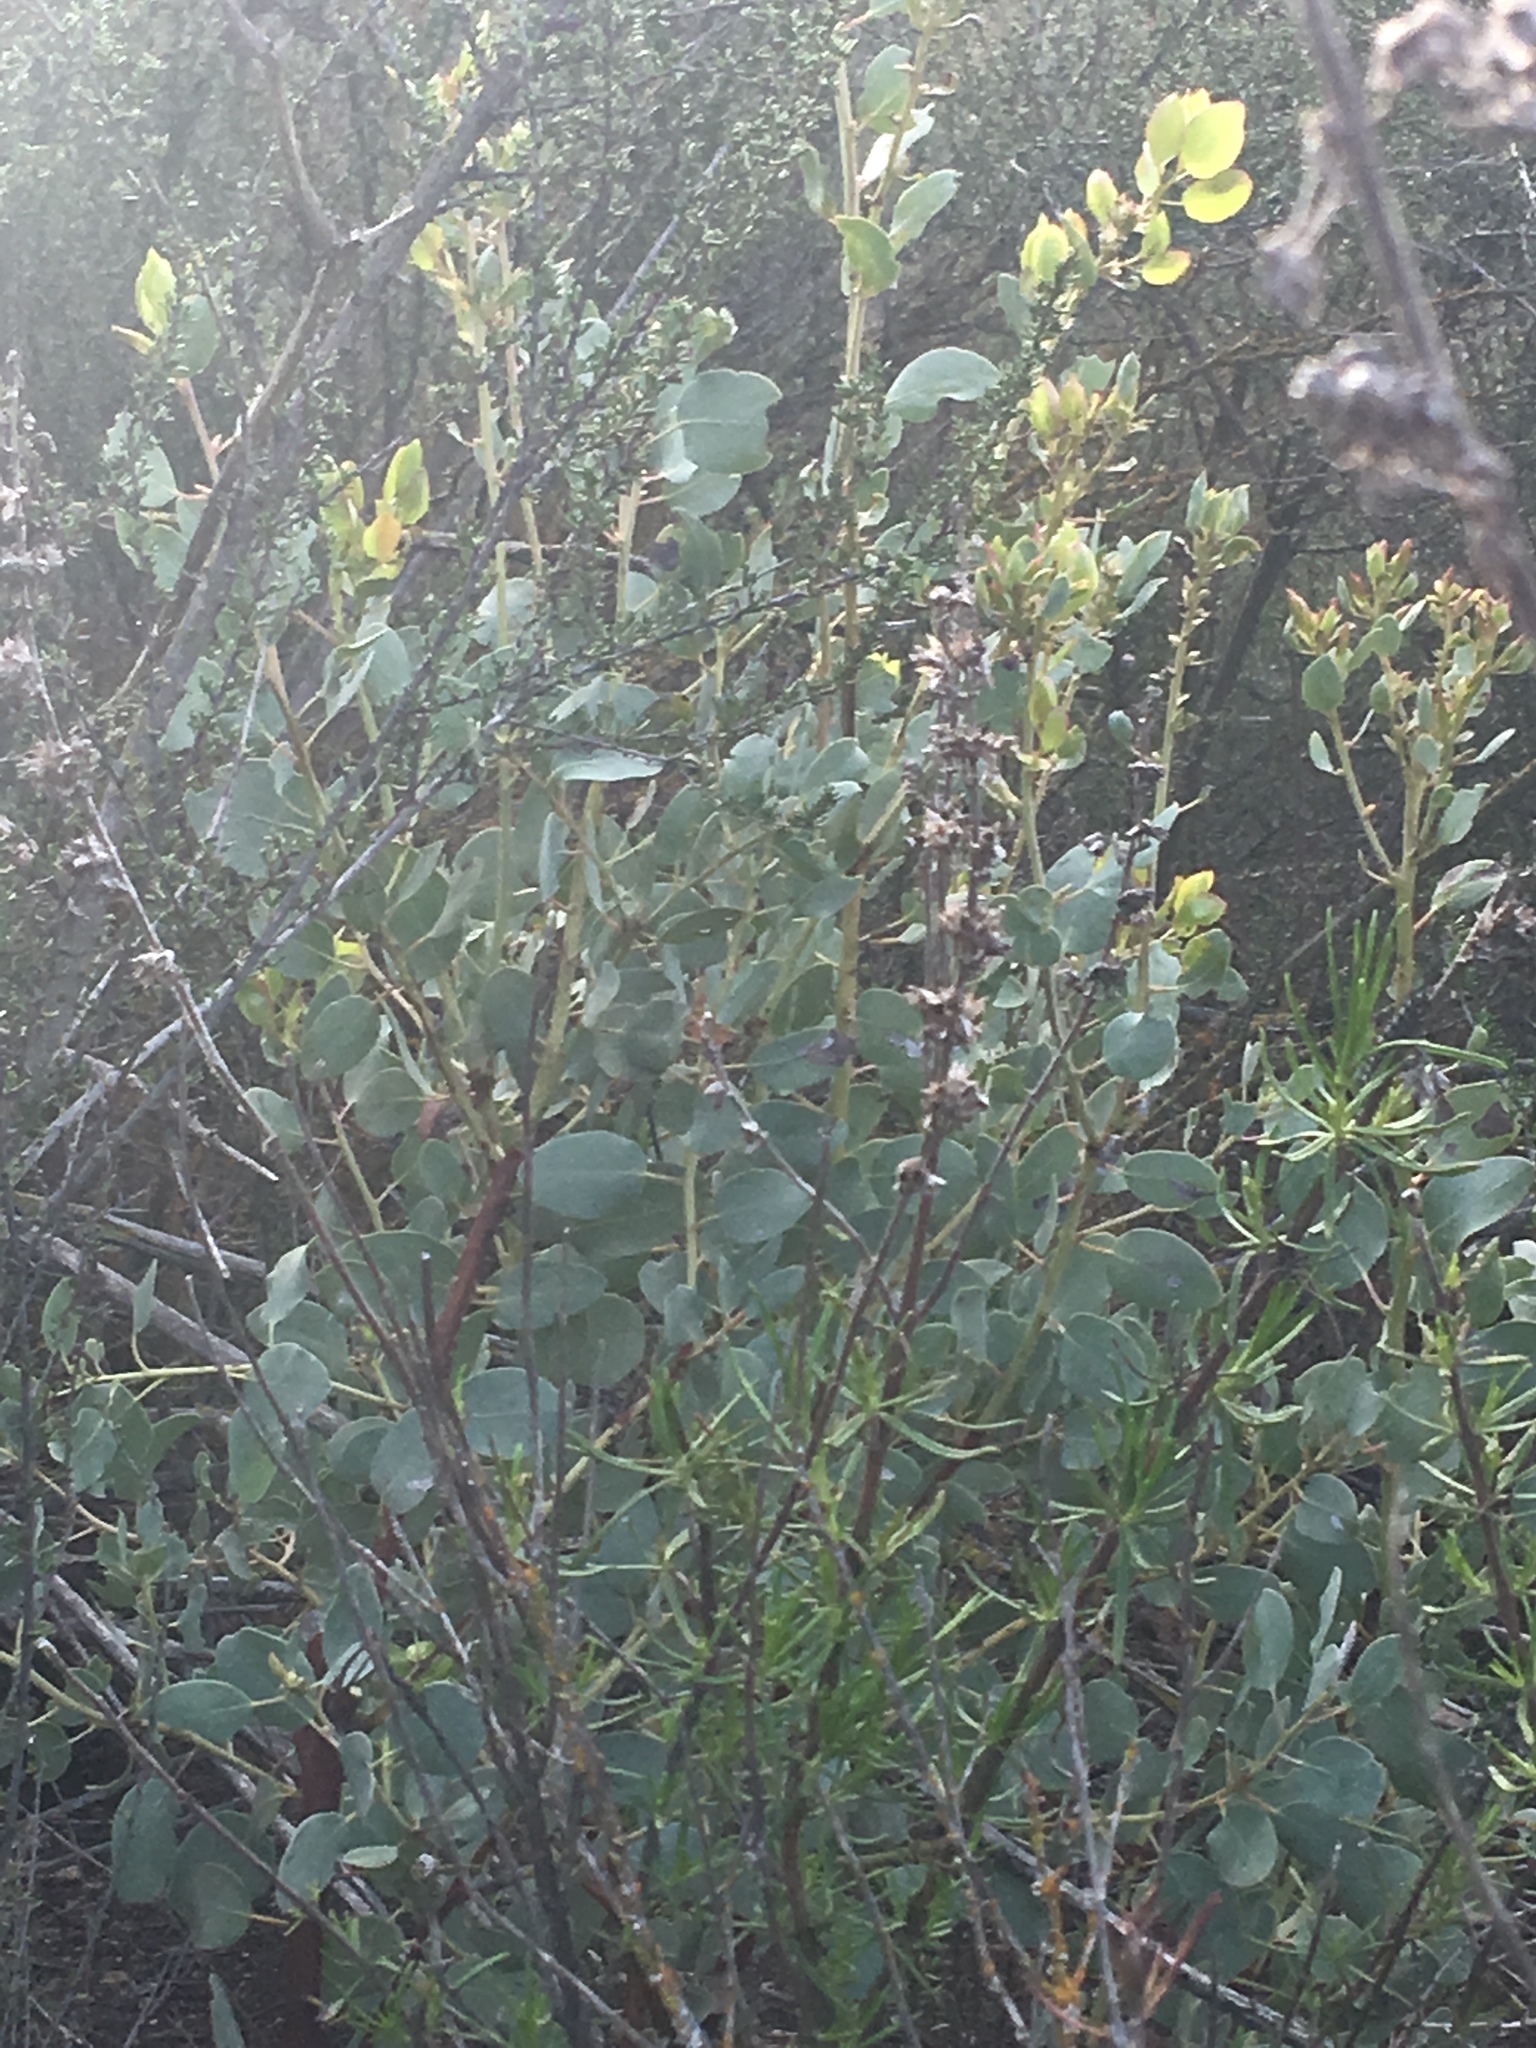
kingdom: Plantae
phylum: Tracheophyta
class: Magnoliopsida
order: Ericales
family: Ericaceae
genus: Arctostaphylos
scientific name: Arctostaphylos glauca
